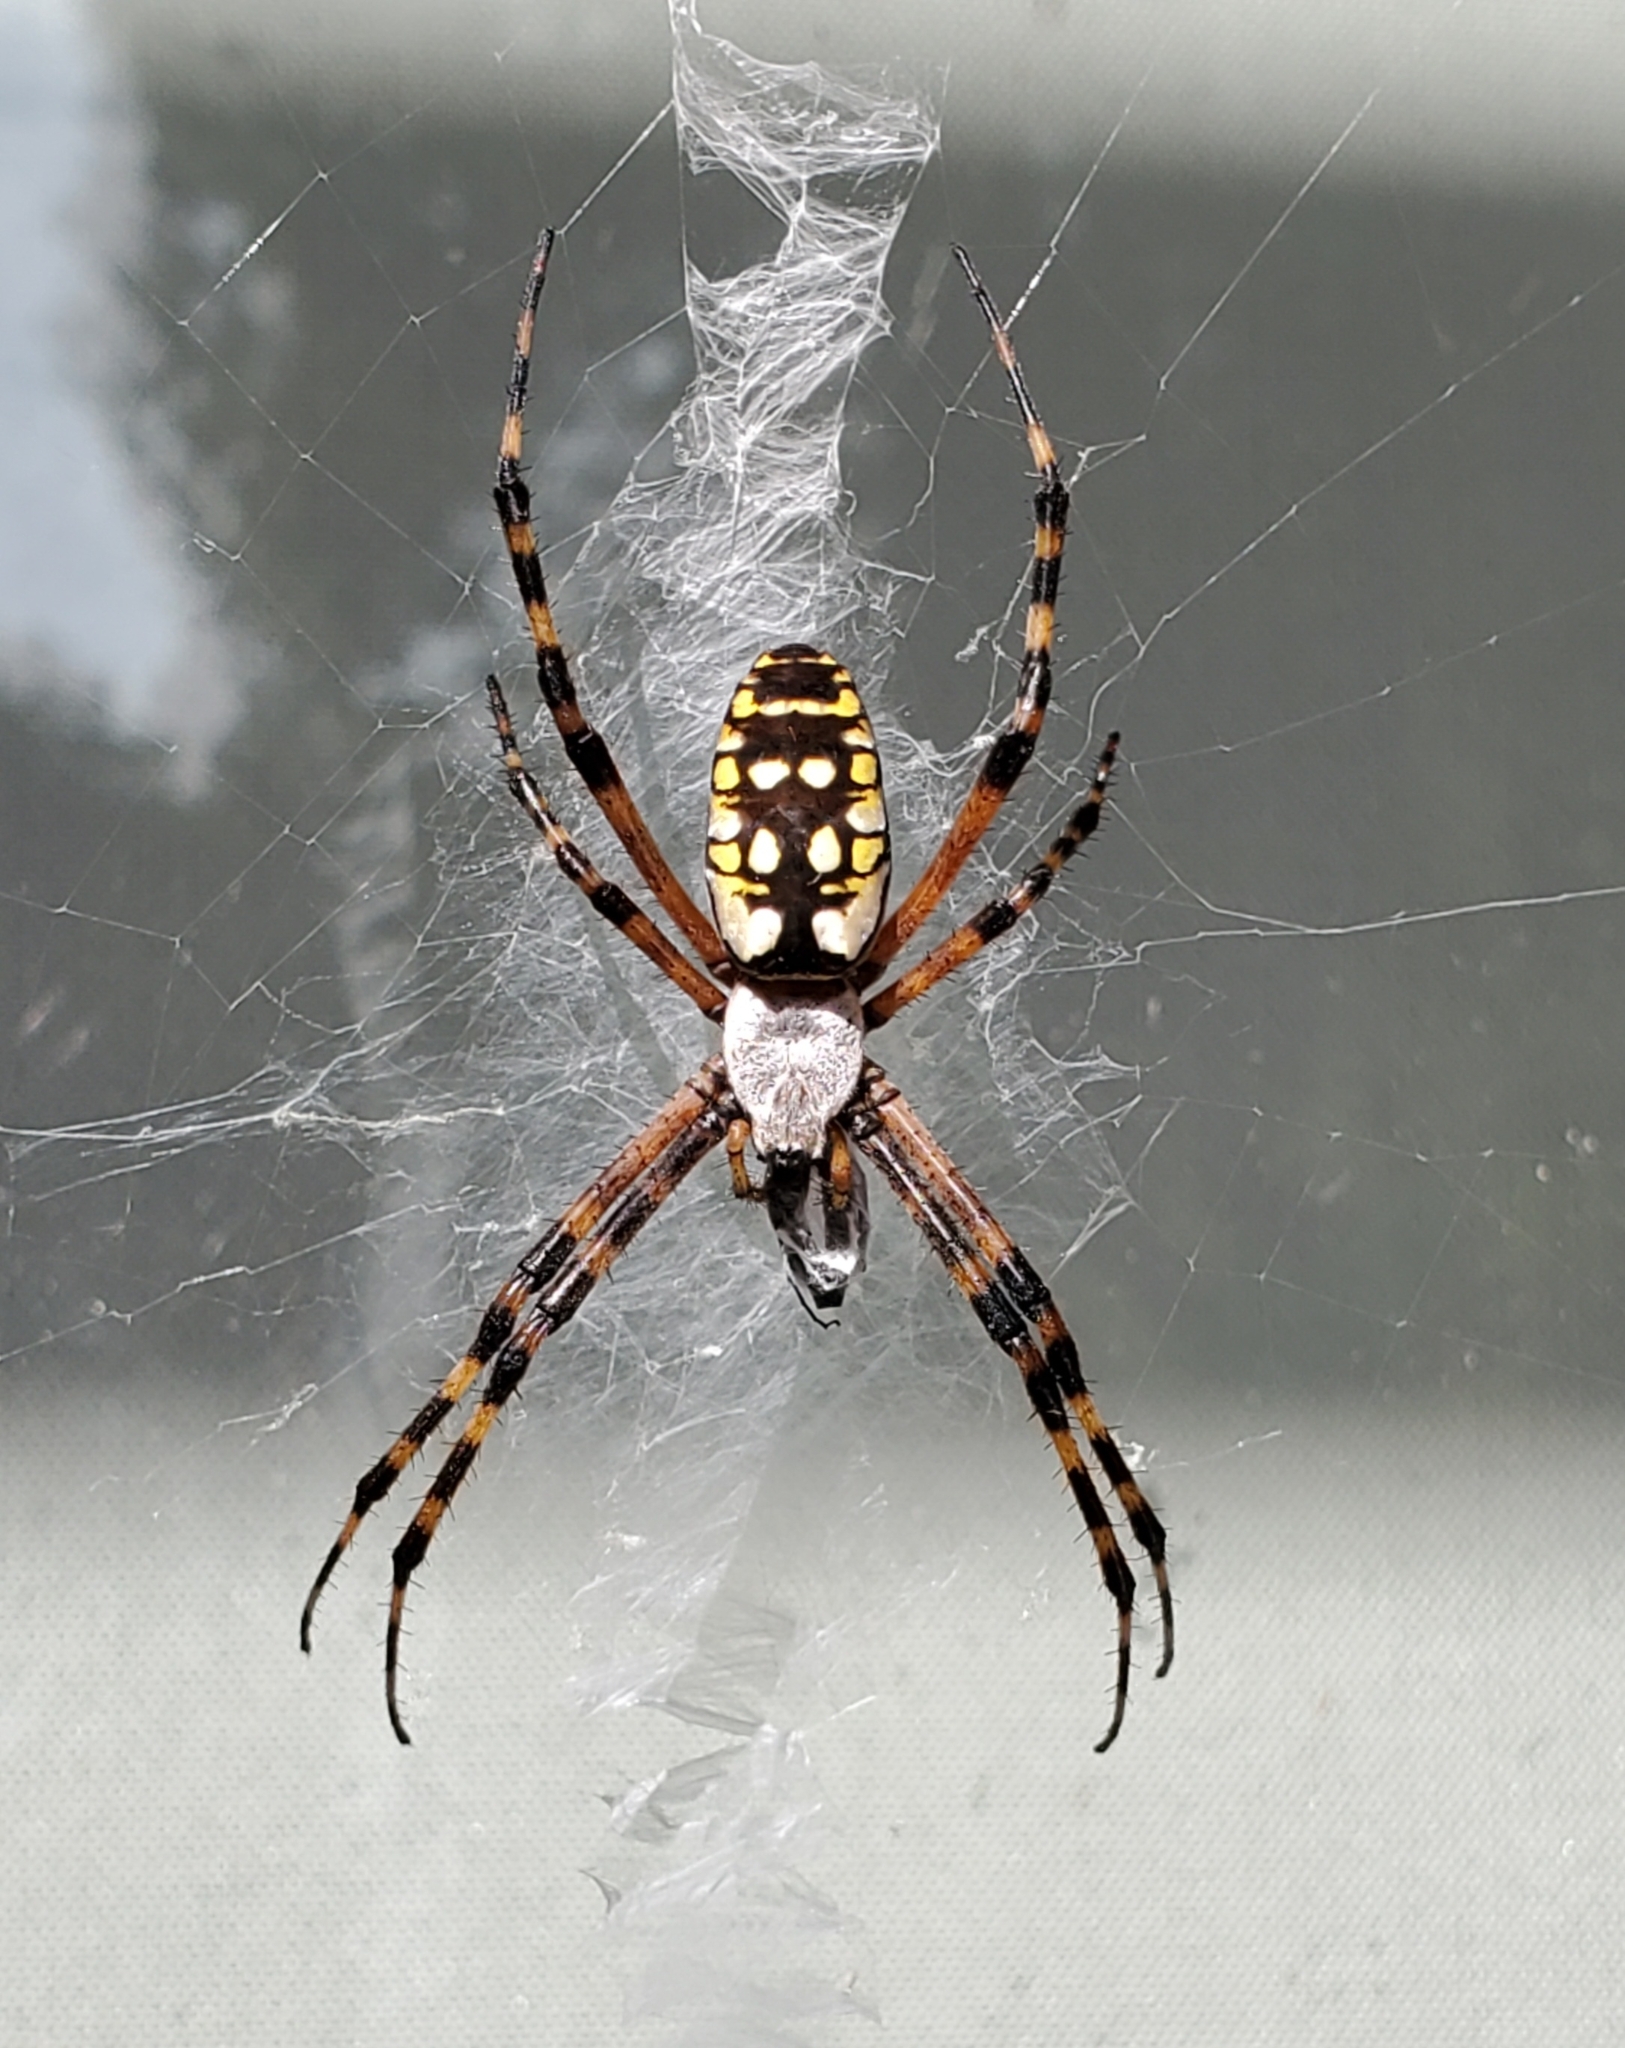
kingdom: Animalia
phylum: Arthropoda
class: Arachnida
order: Araneae
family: Araneidae
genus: Argiope
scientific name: Argiope aurantia
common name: Orb weavers
